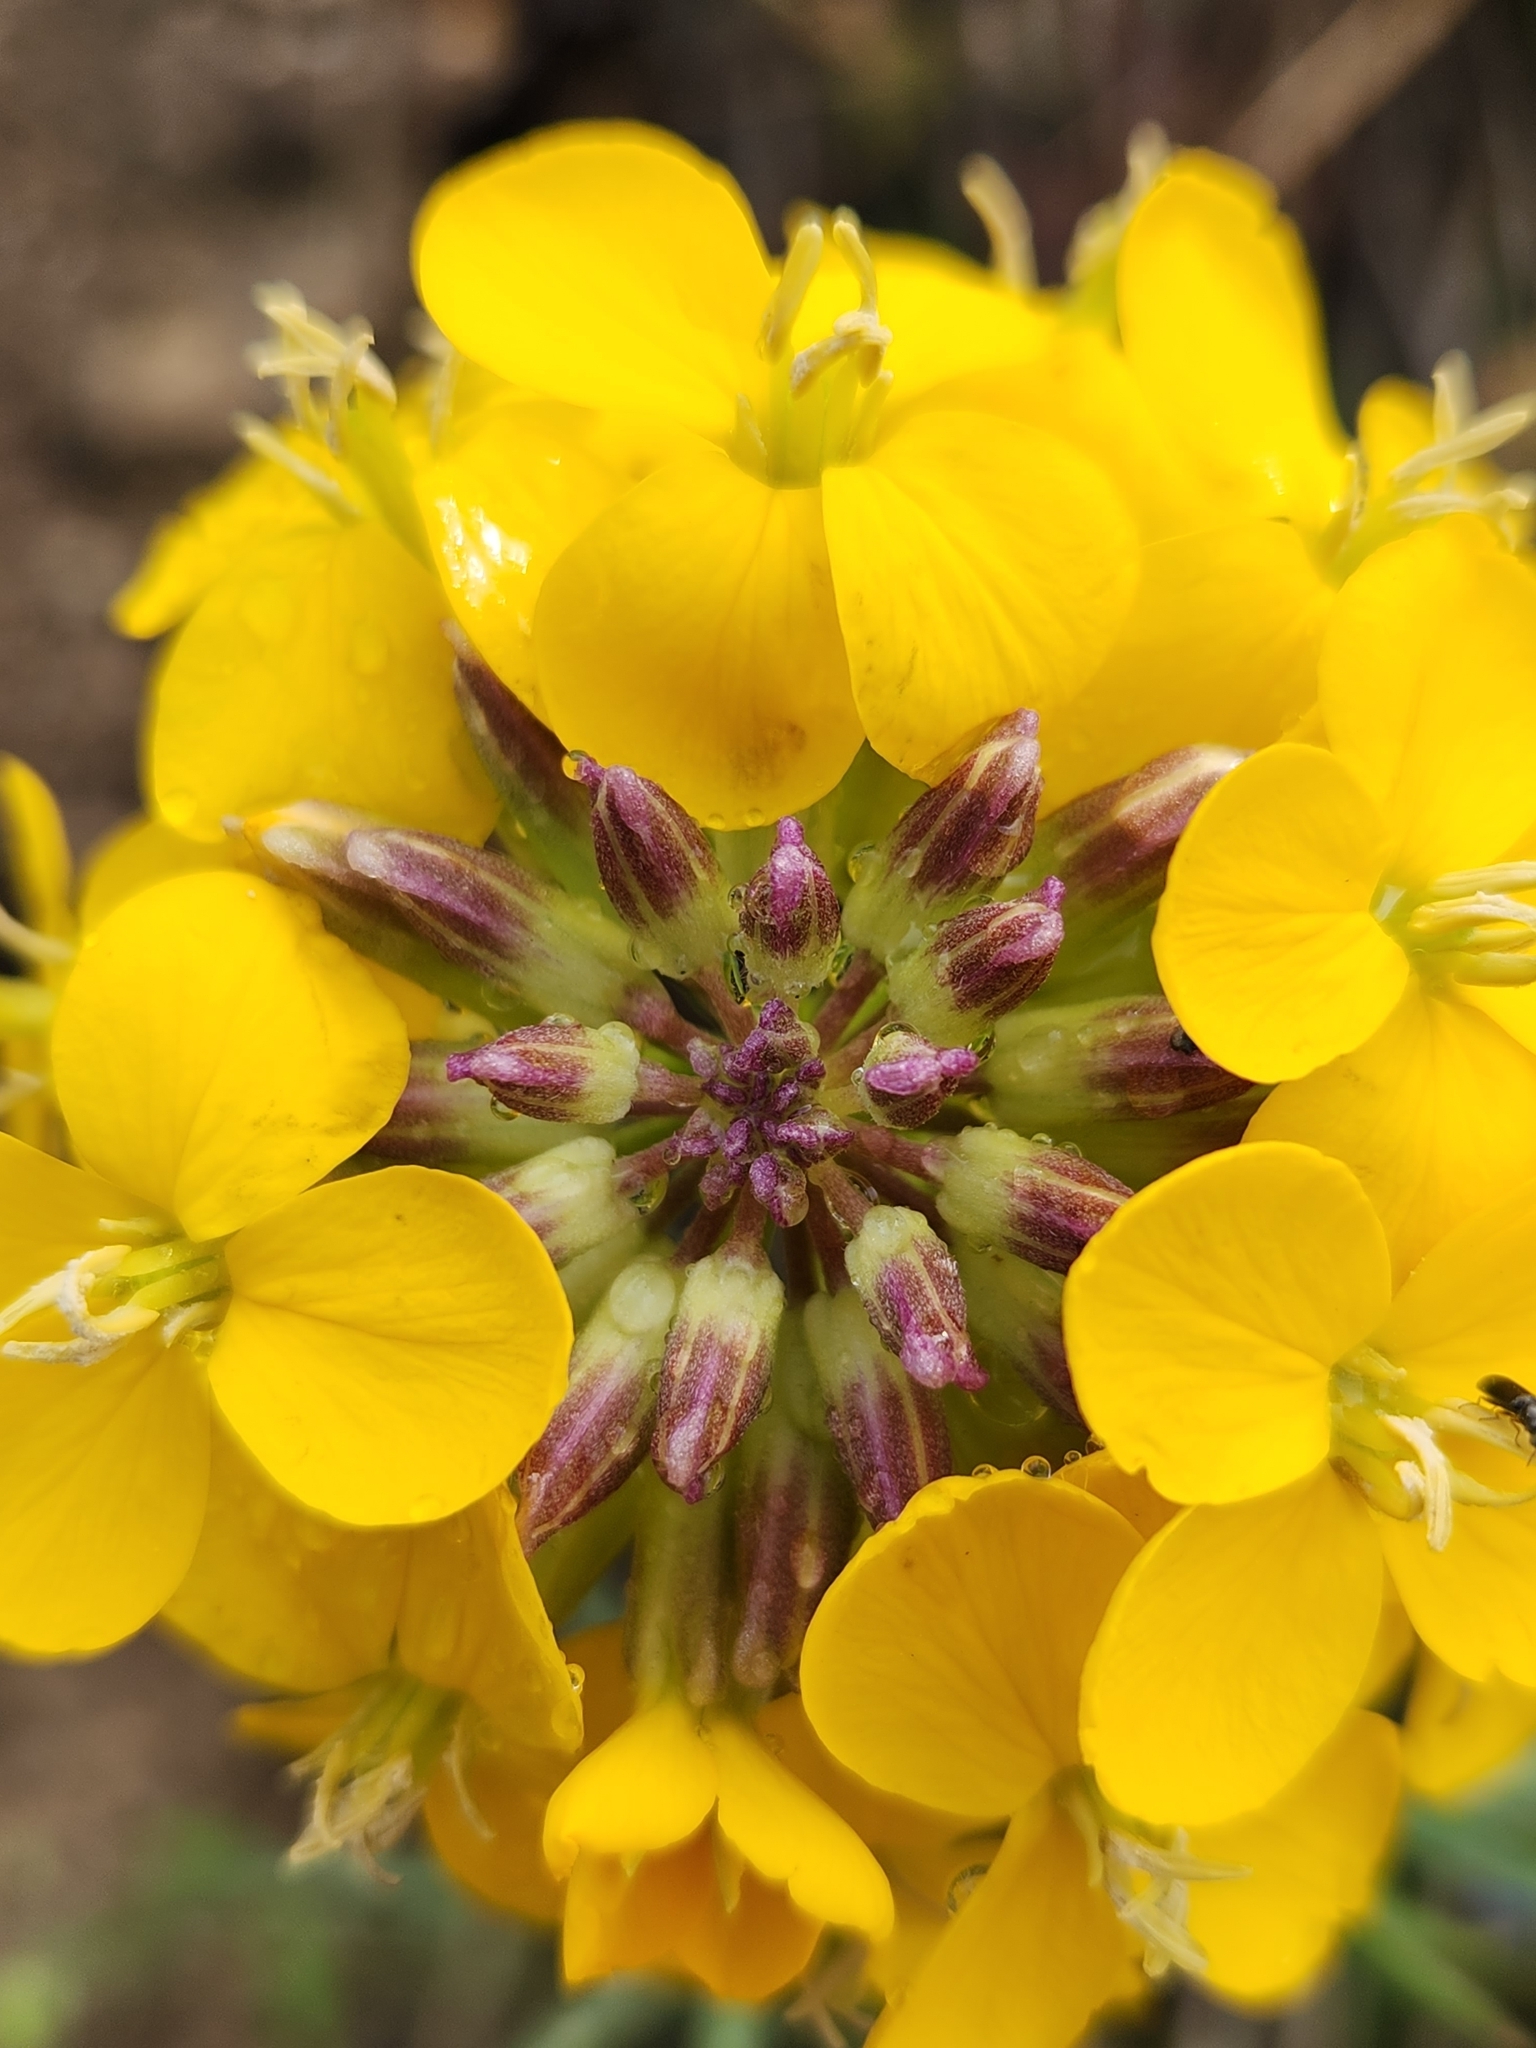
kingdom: Plantae
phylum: Tracheophyta
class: Magnoliopsida
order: Brassicales
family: Brassicaceae
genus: Erysimum
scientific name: Erysimum capitatum
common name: Western wallflower
